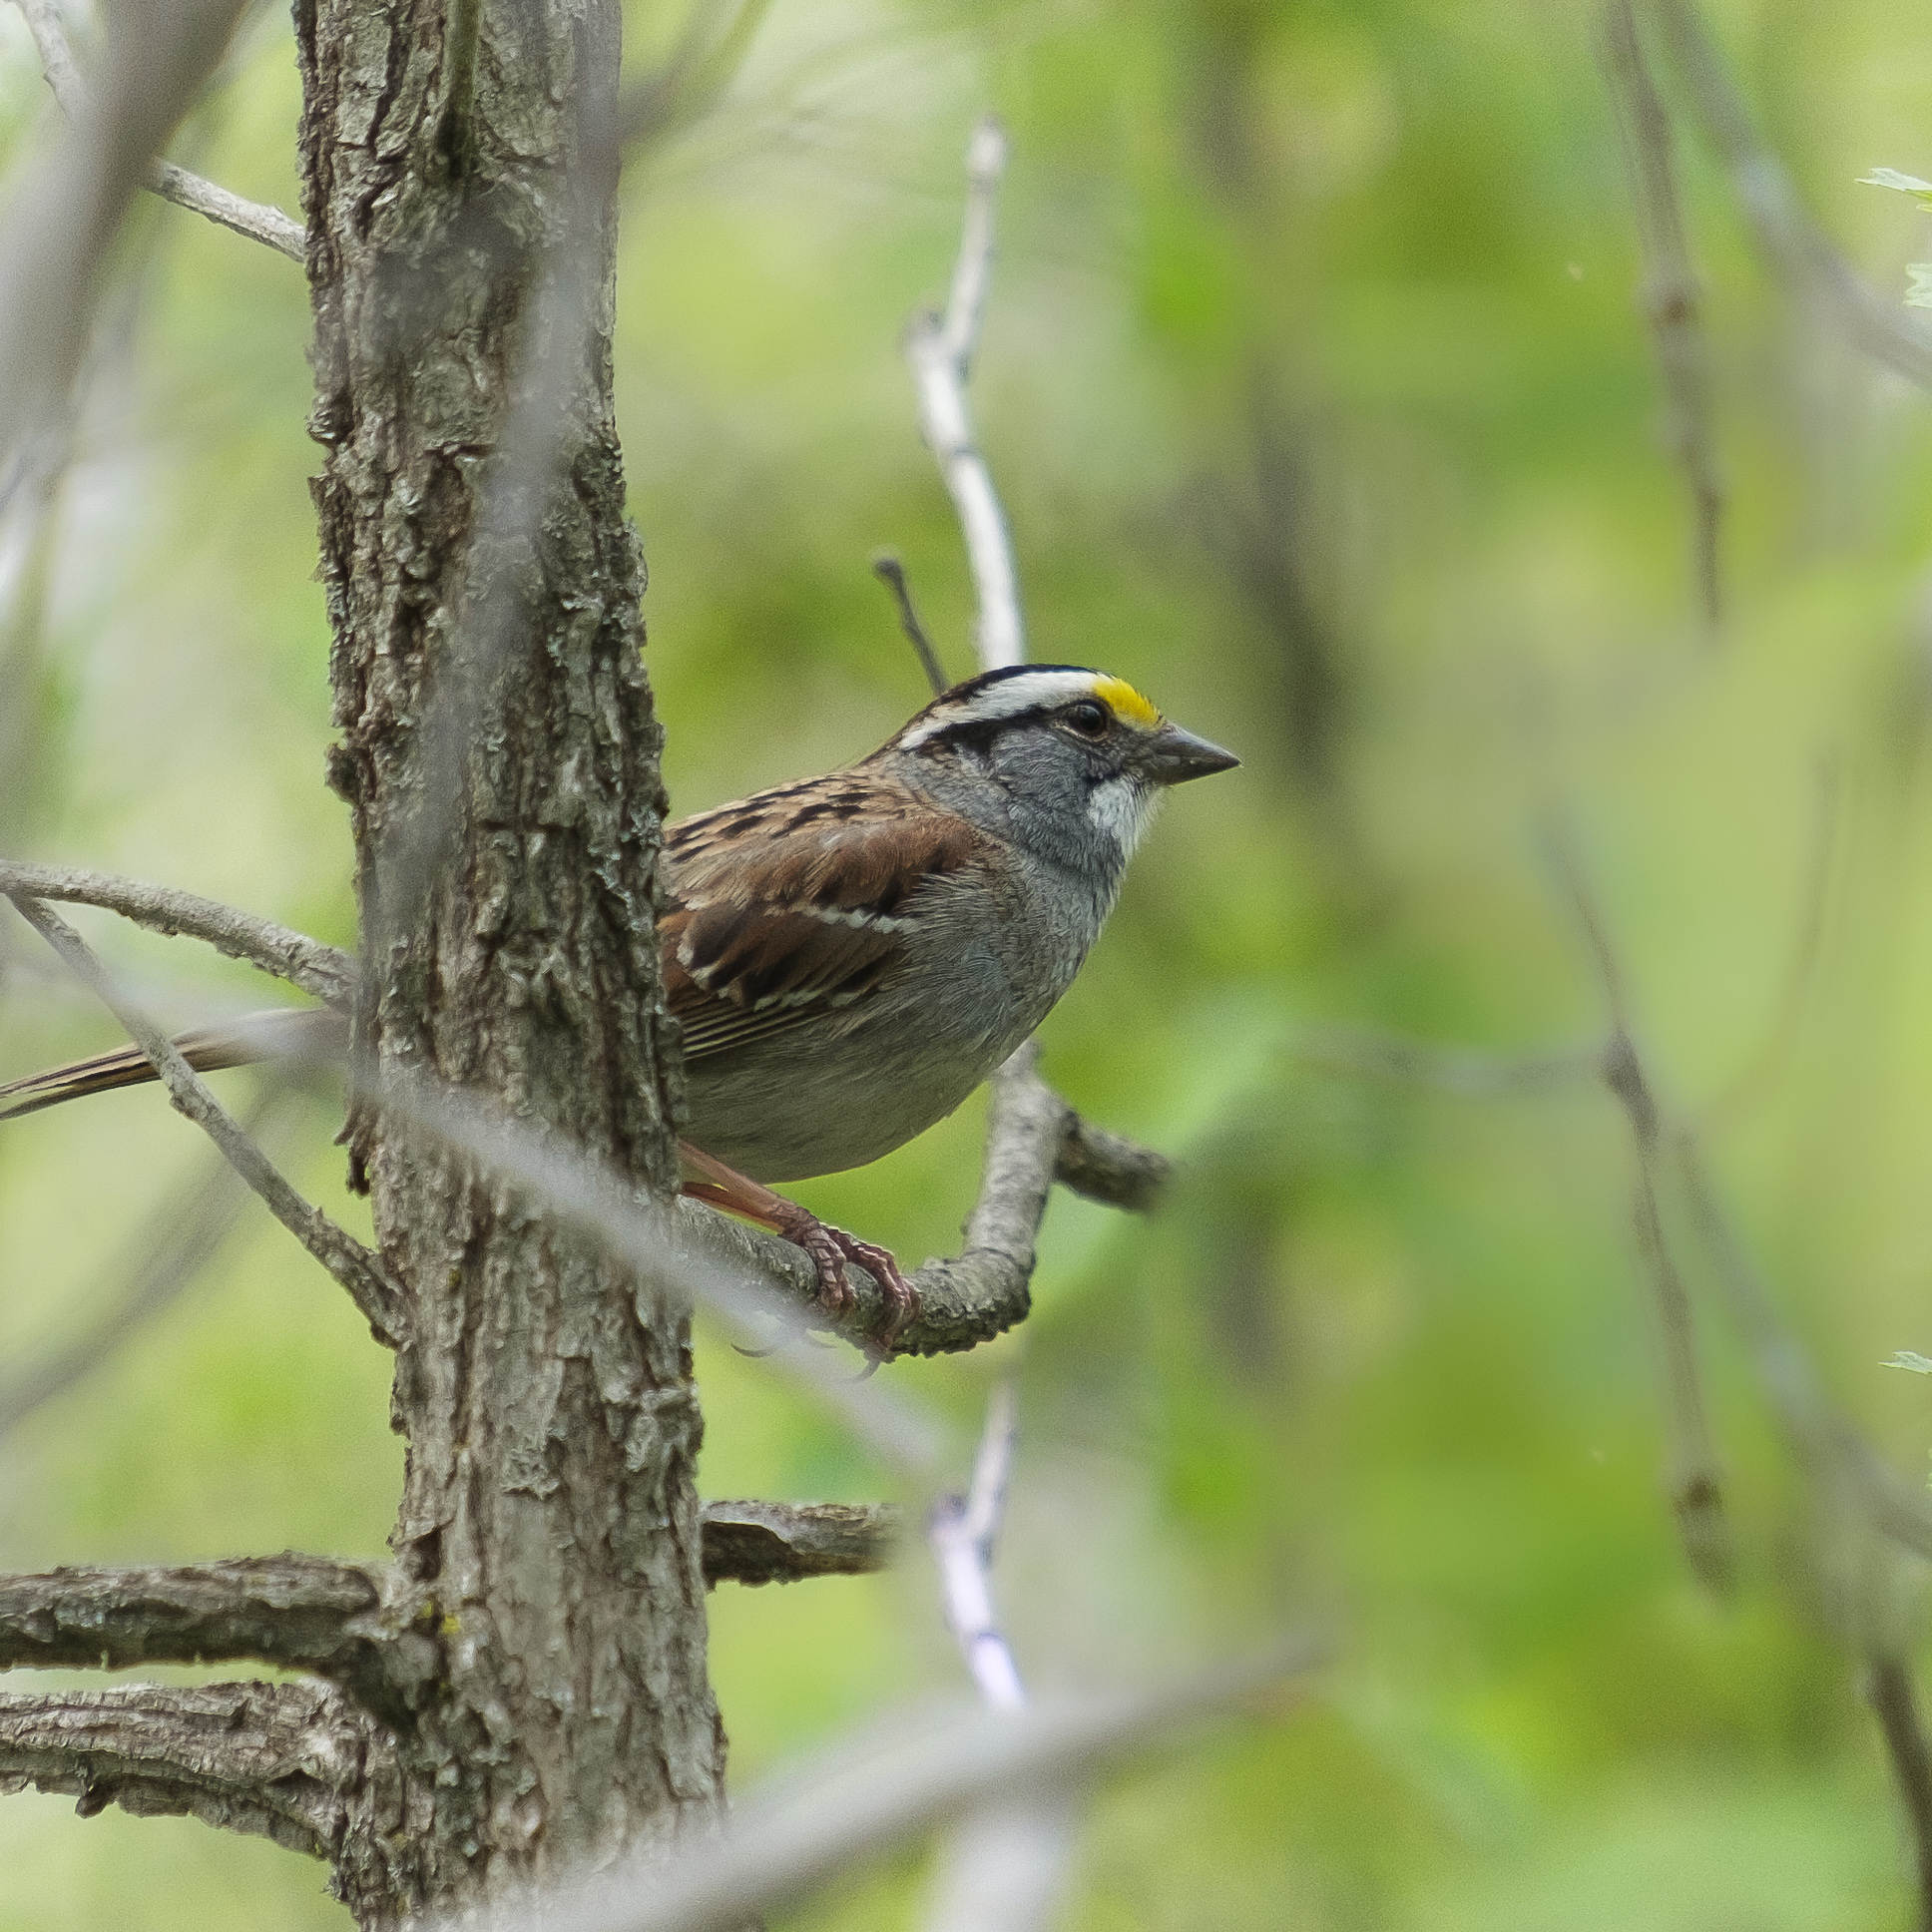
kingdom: Animalia
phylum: Chordata
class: Aves
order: Passeriformes
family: Passerellidae
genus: Zonotrichia
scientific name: Zonotrichia albicollis
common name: White-throated sparrow
